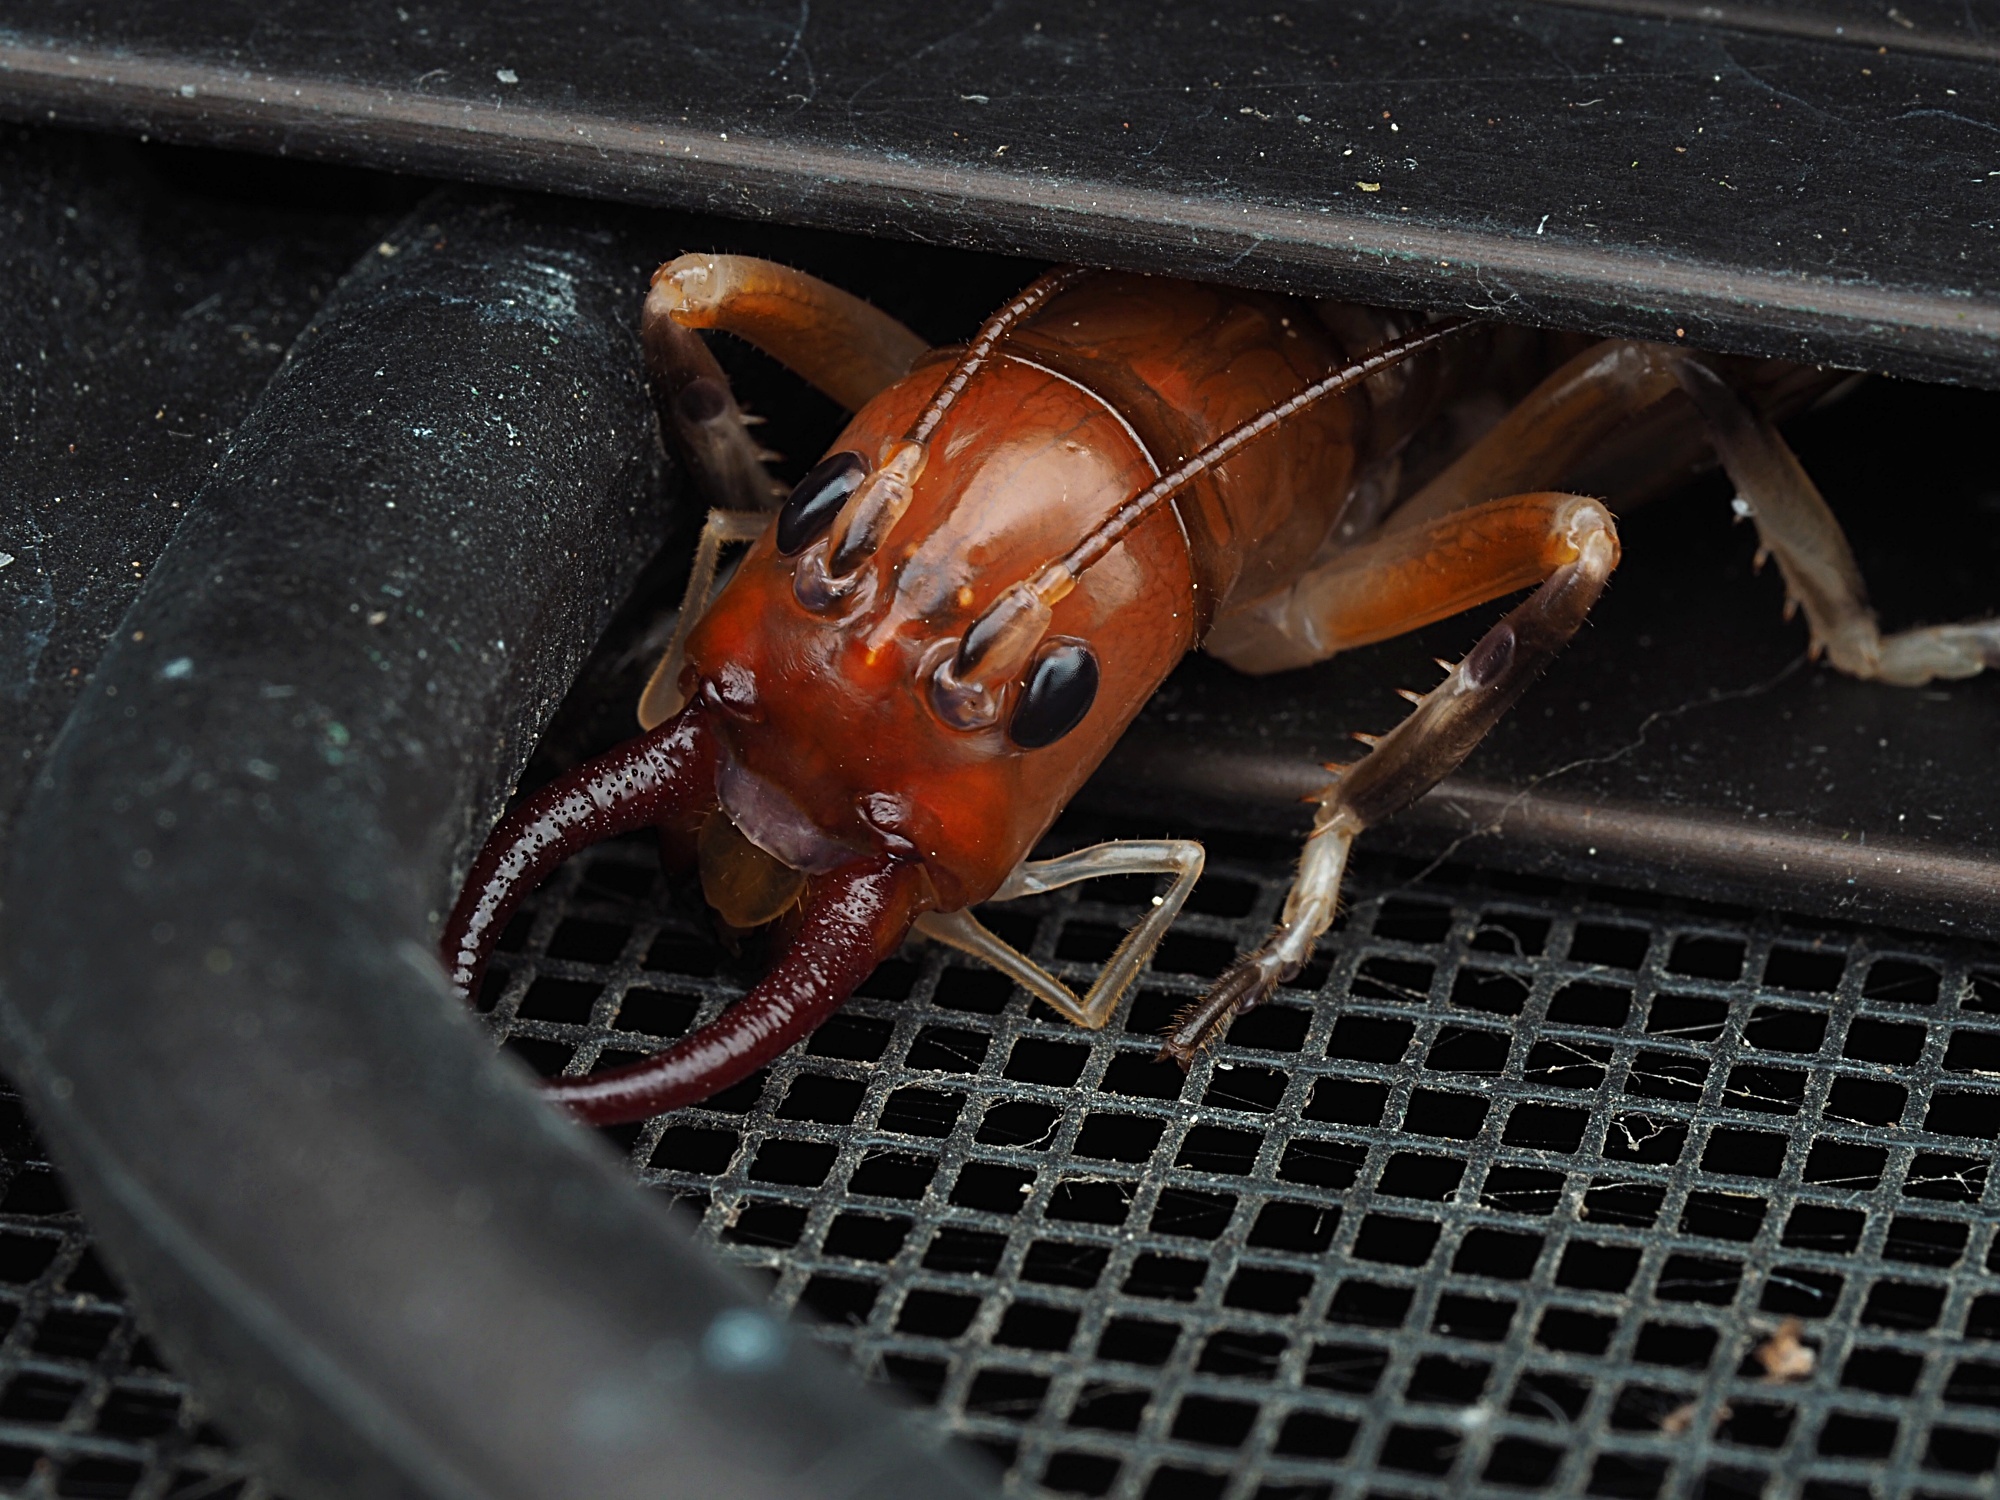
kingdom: Animalia
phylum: Arthropoda
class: Insecta
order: Orthoptera
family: Anostostomatidae
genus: Anisoura
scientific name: Anisoura nicobarica
